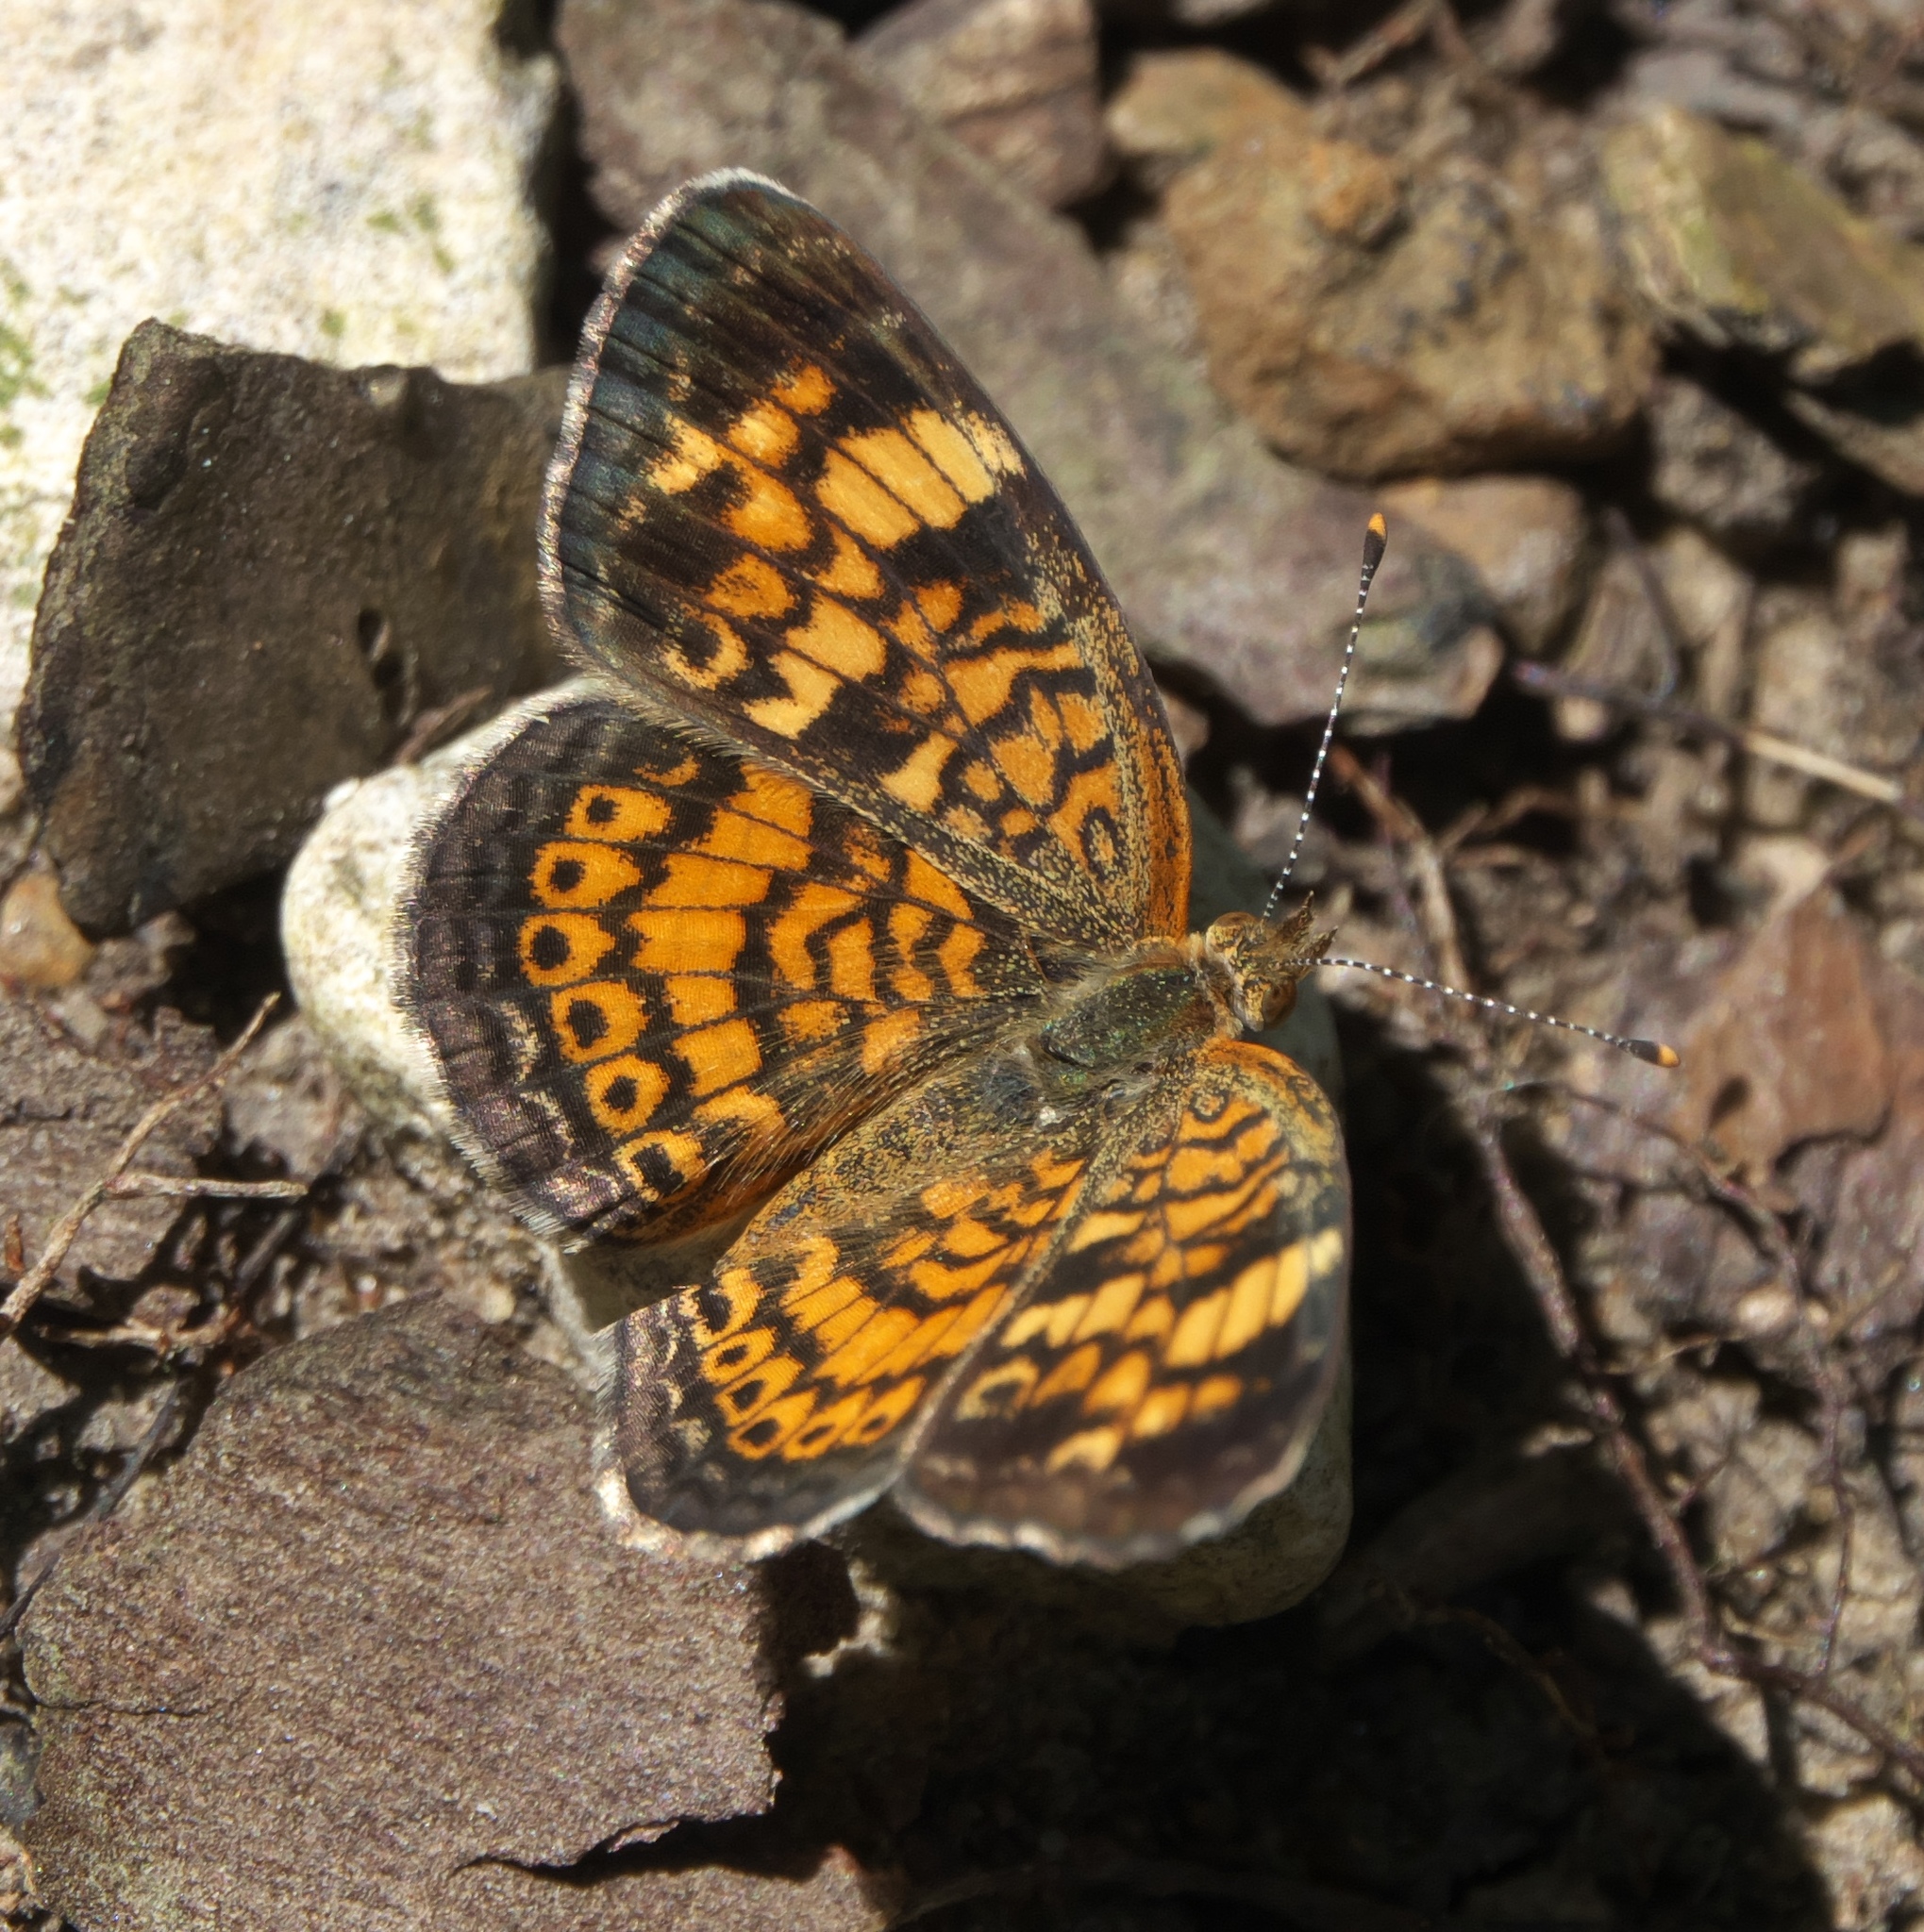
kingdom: Animalia
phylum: Arthropoda
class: Insecta
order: Lepidoptera
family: Nymphalidae
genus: Phyciodes
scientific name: Phyciodes tharos
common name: Pearl crescent
